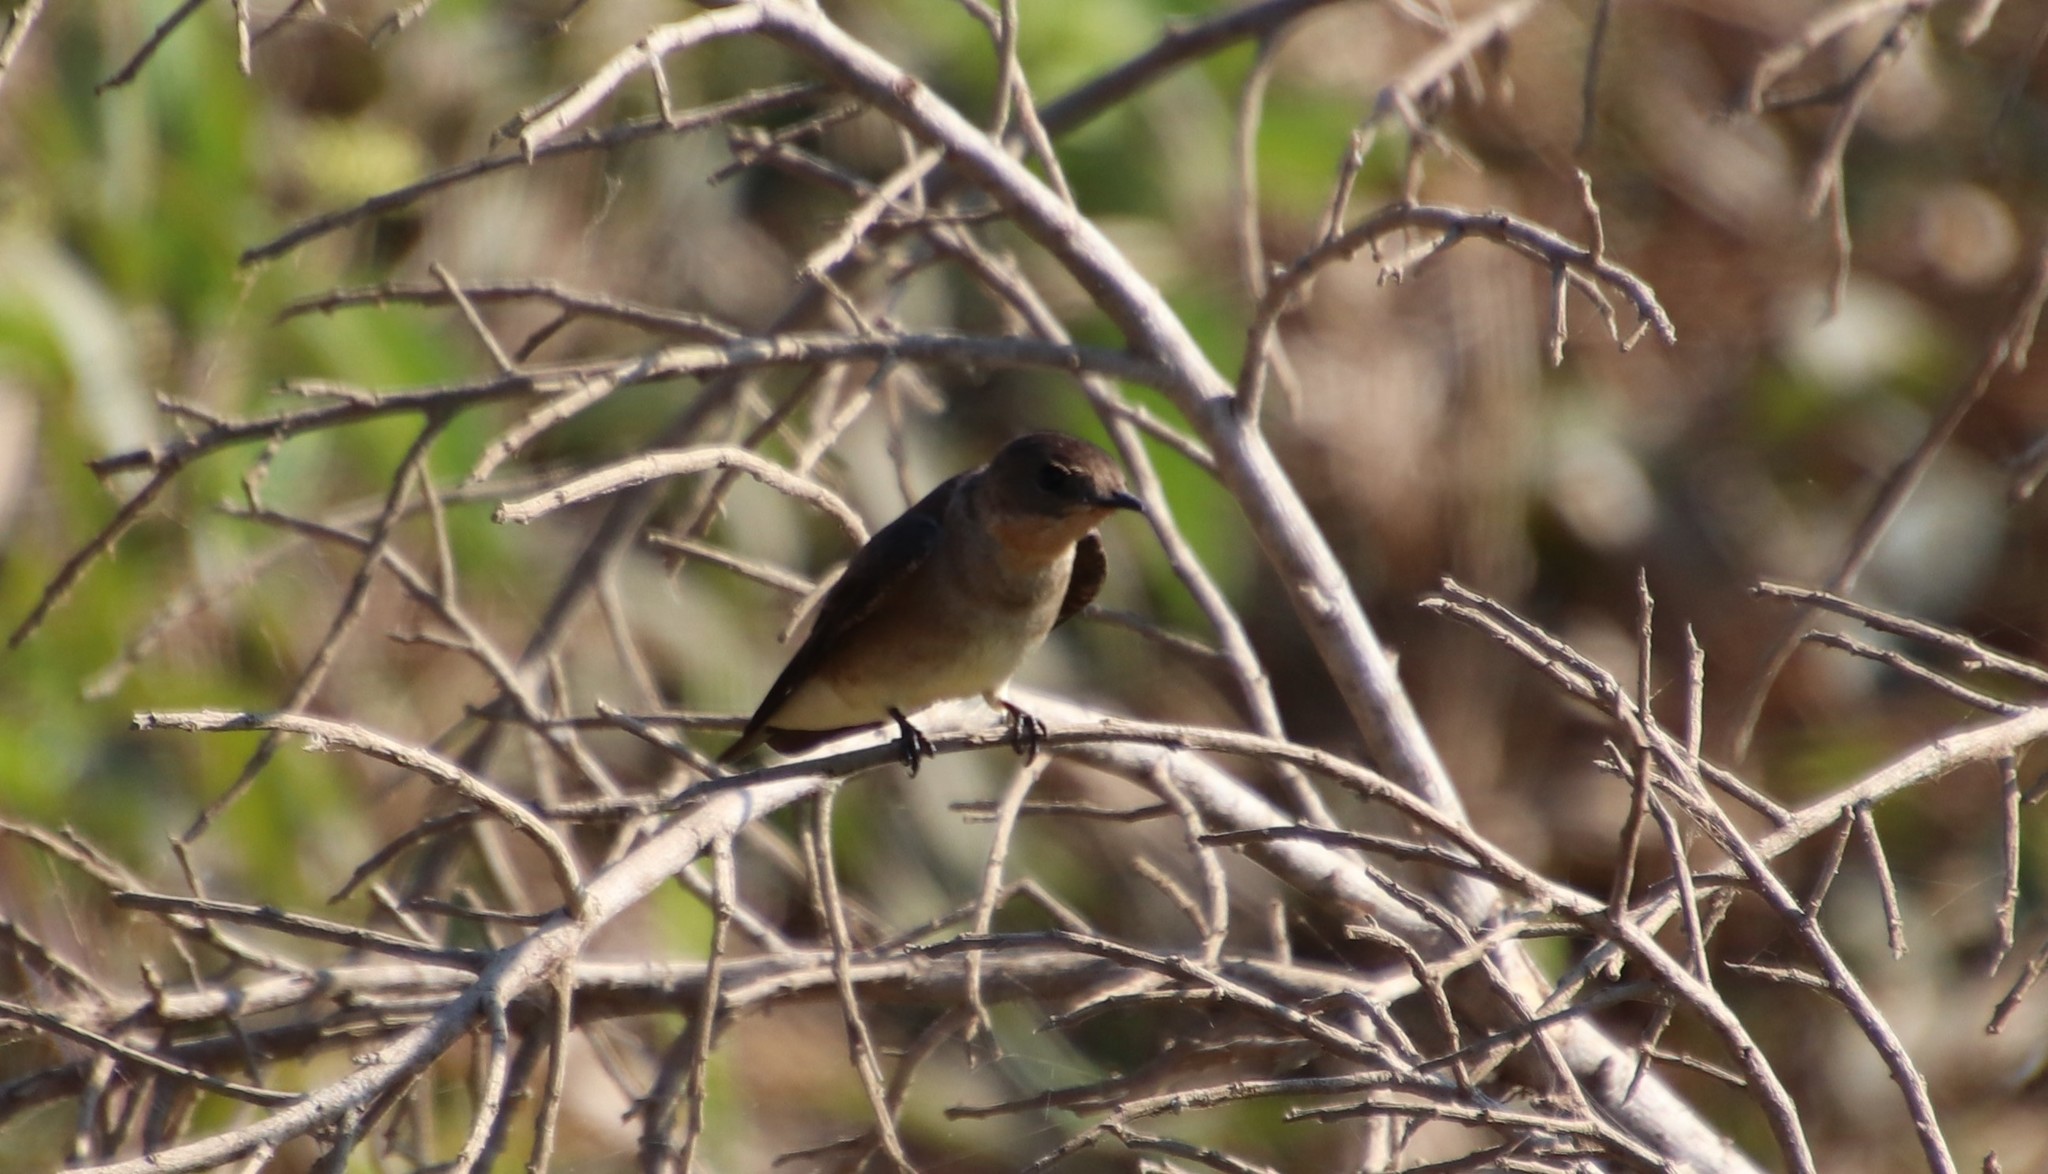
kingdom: Animalia
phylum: Chordata
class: Aves
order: Passeriformes
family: Hirundinidae
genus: Stelgidopteryx
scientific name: Stelgidopteryx ruficollis
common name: Southern rough-winged swallow
